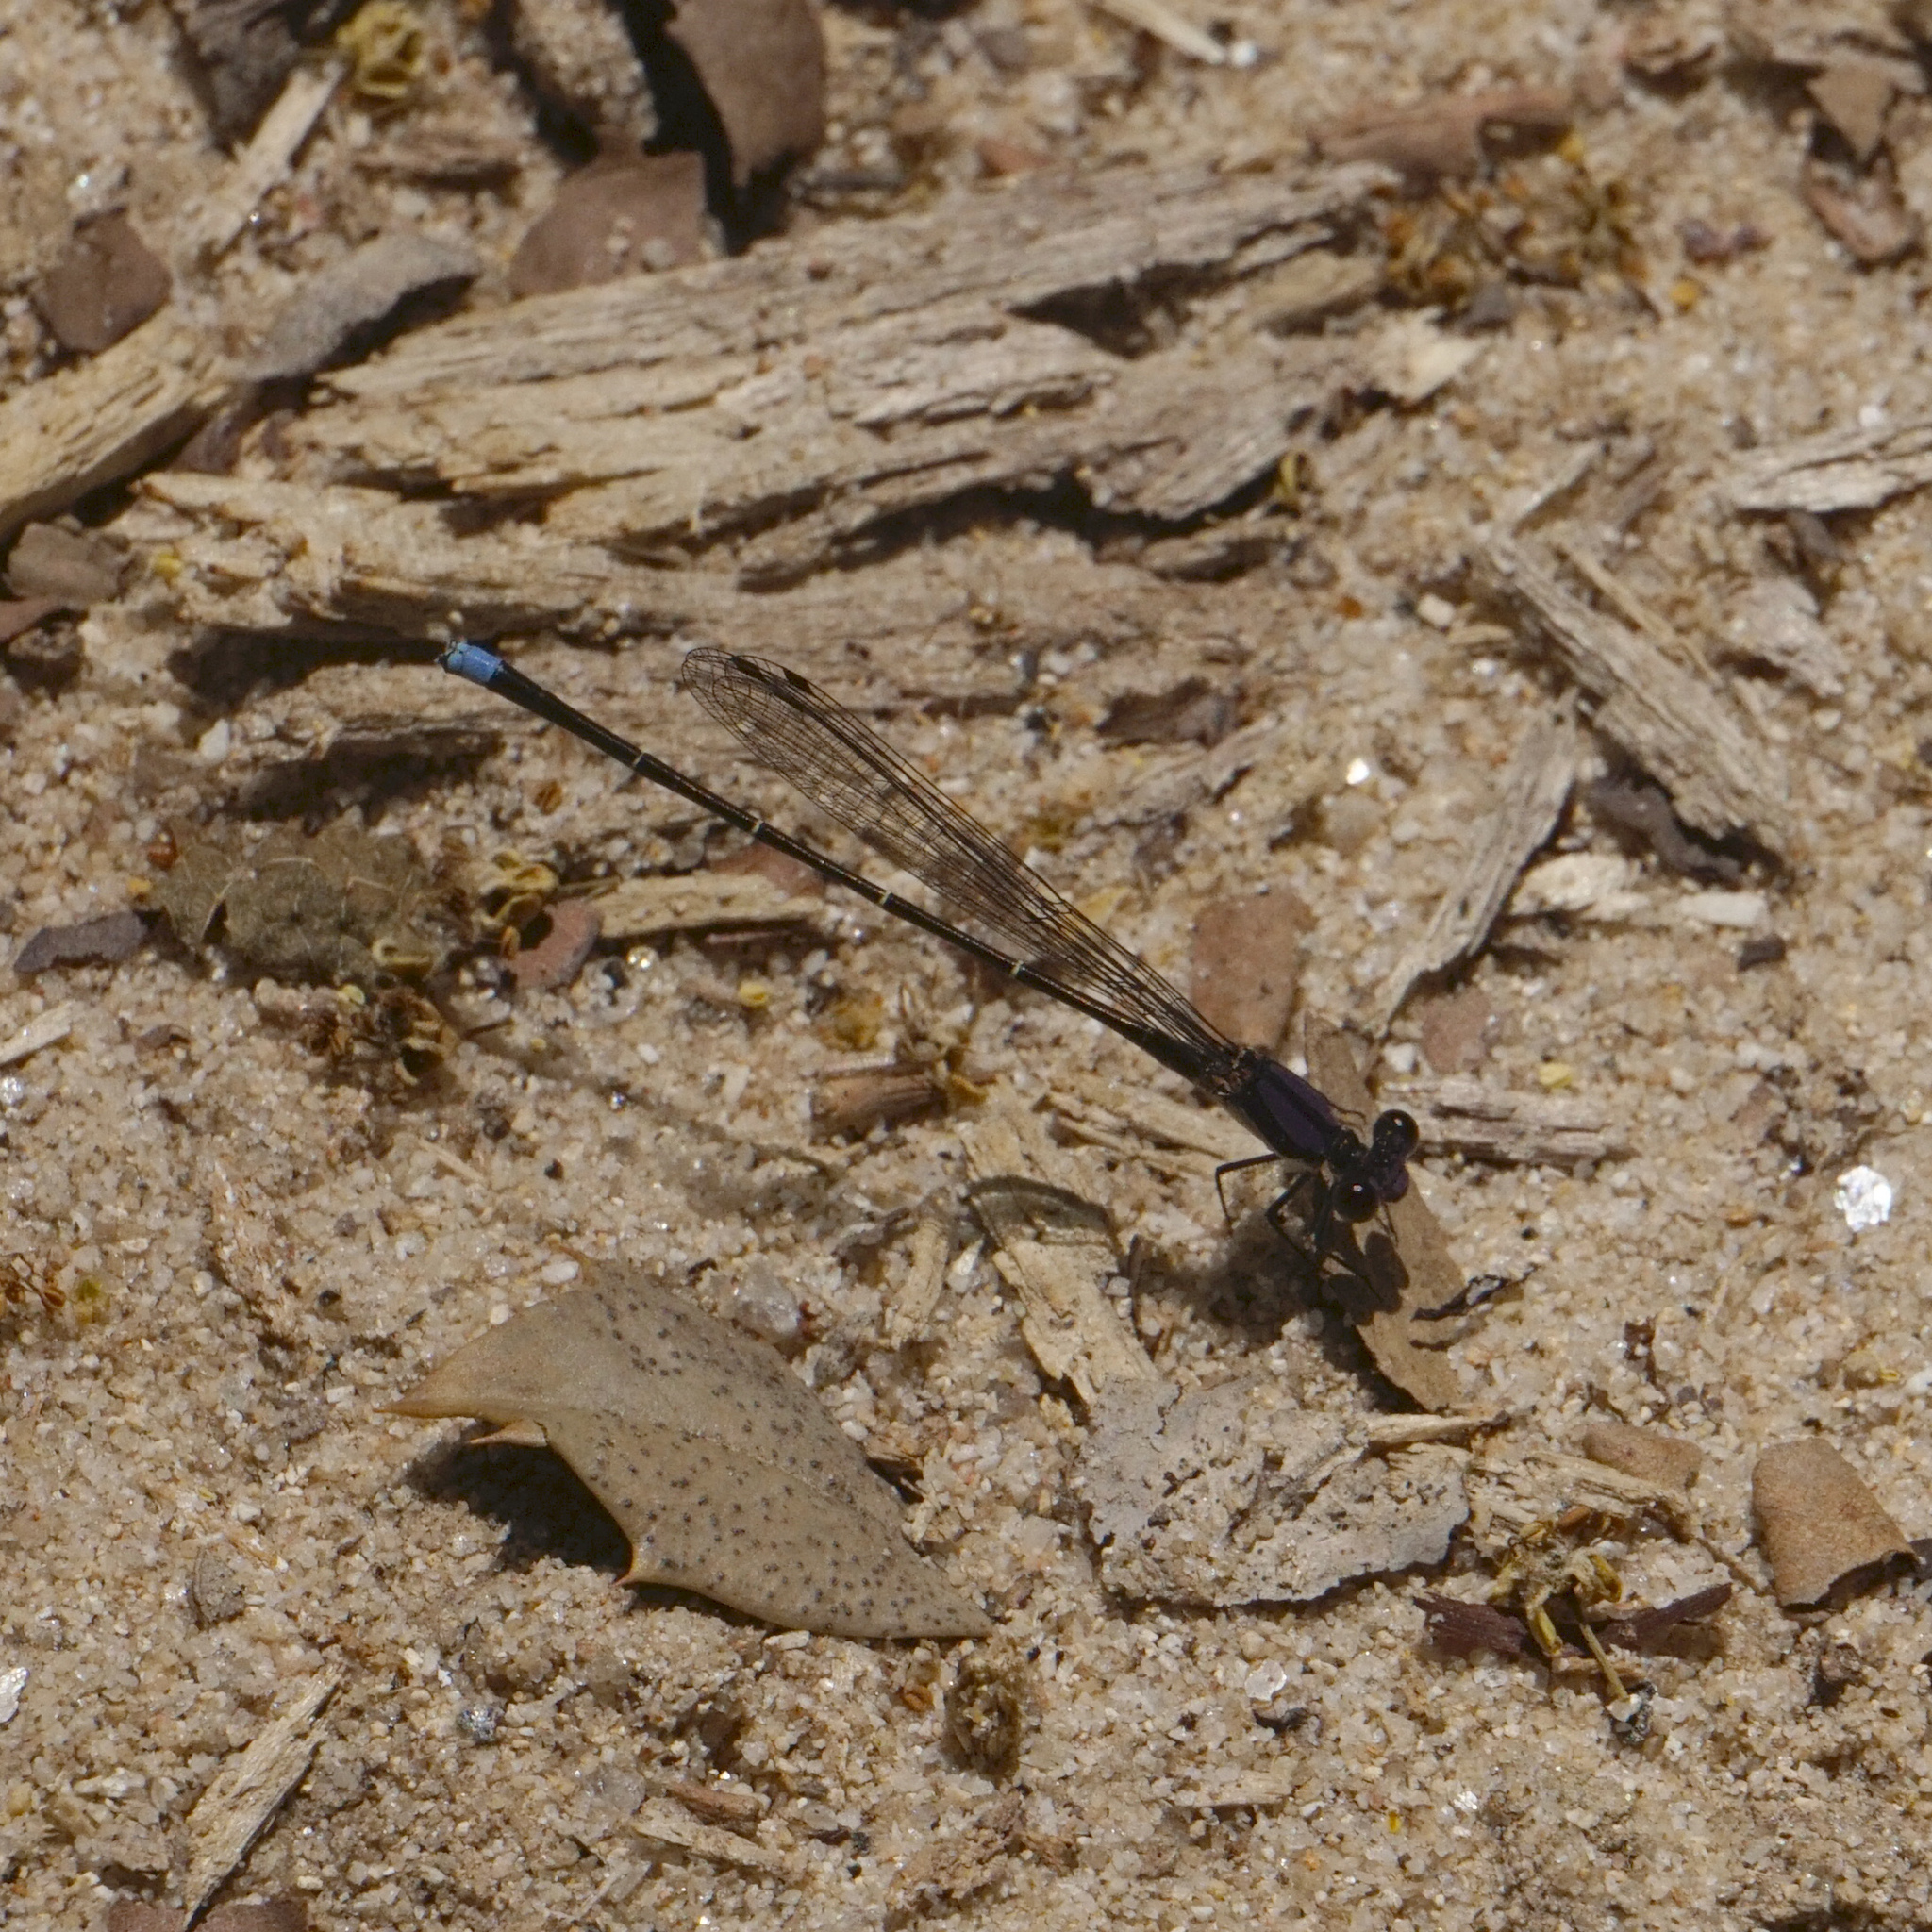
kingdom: Animalia
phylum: Arthropoda
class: Insecta
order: Odonata
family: Coenagrionidae
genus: Argia
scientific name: Argia tibialis
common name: Blue-tipped dancer
